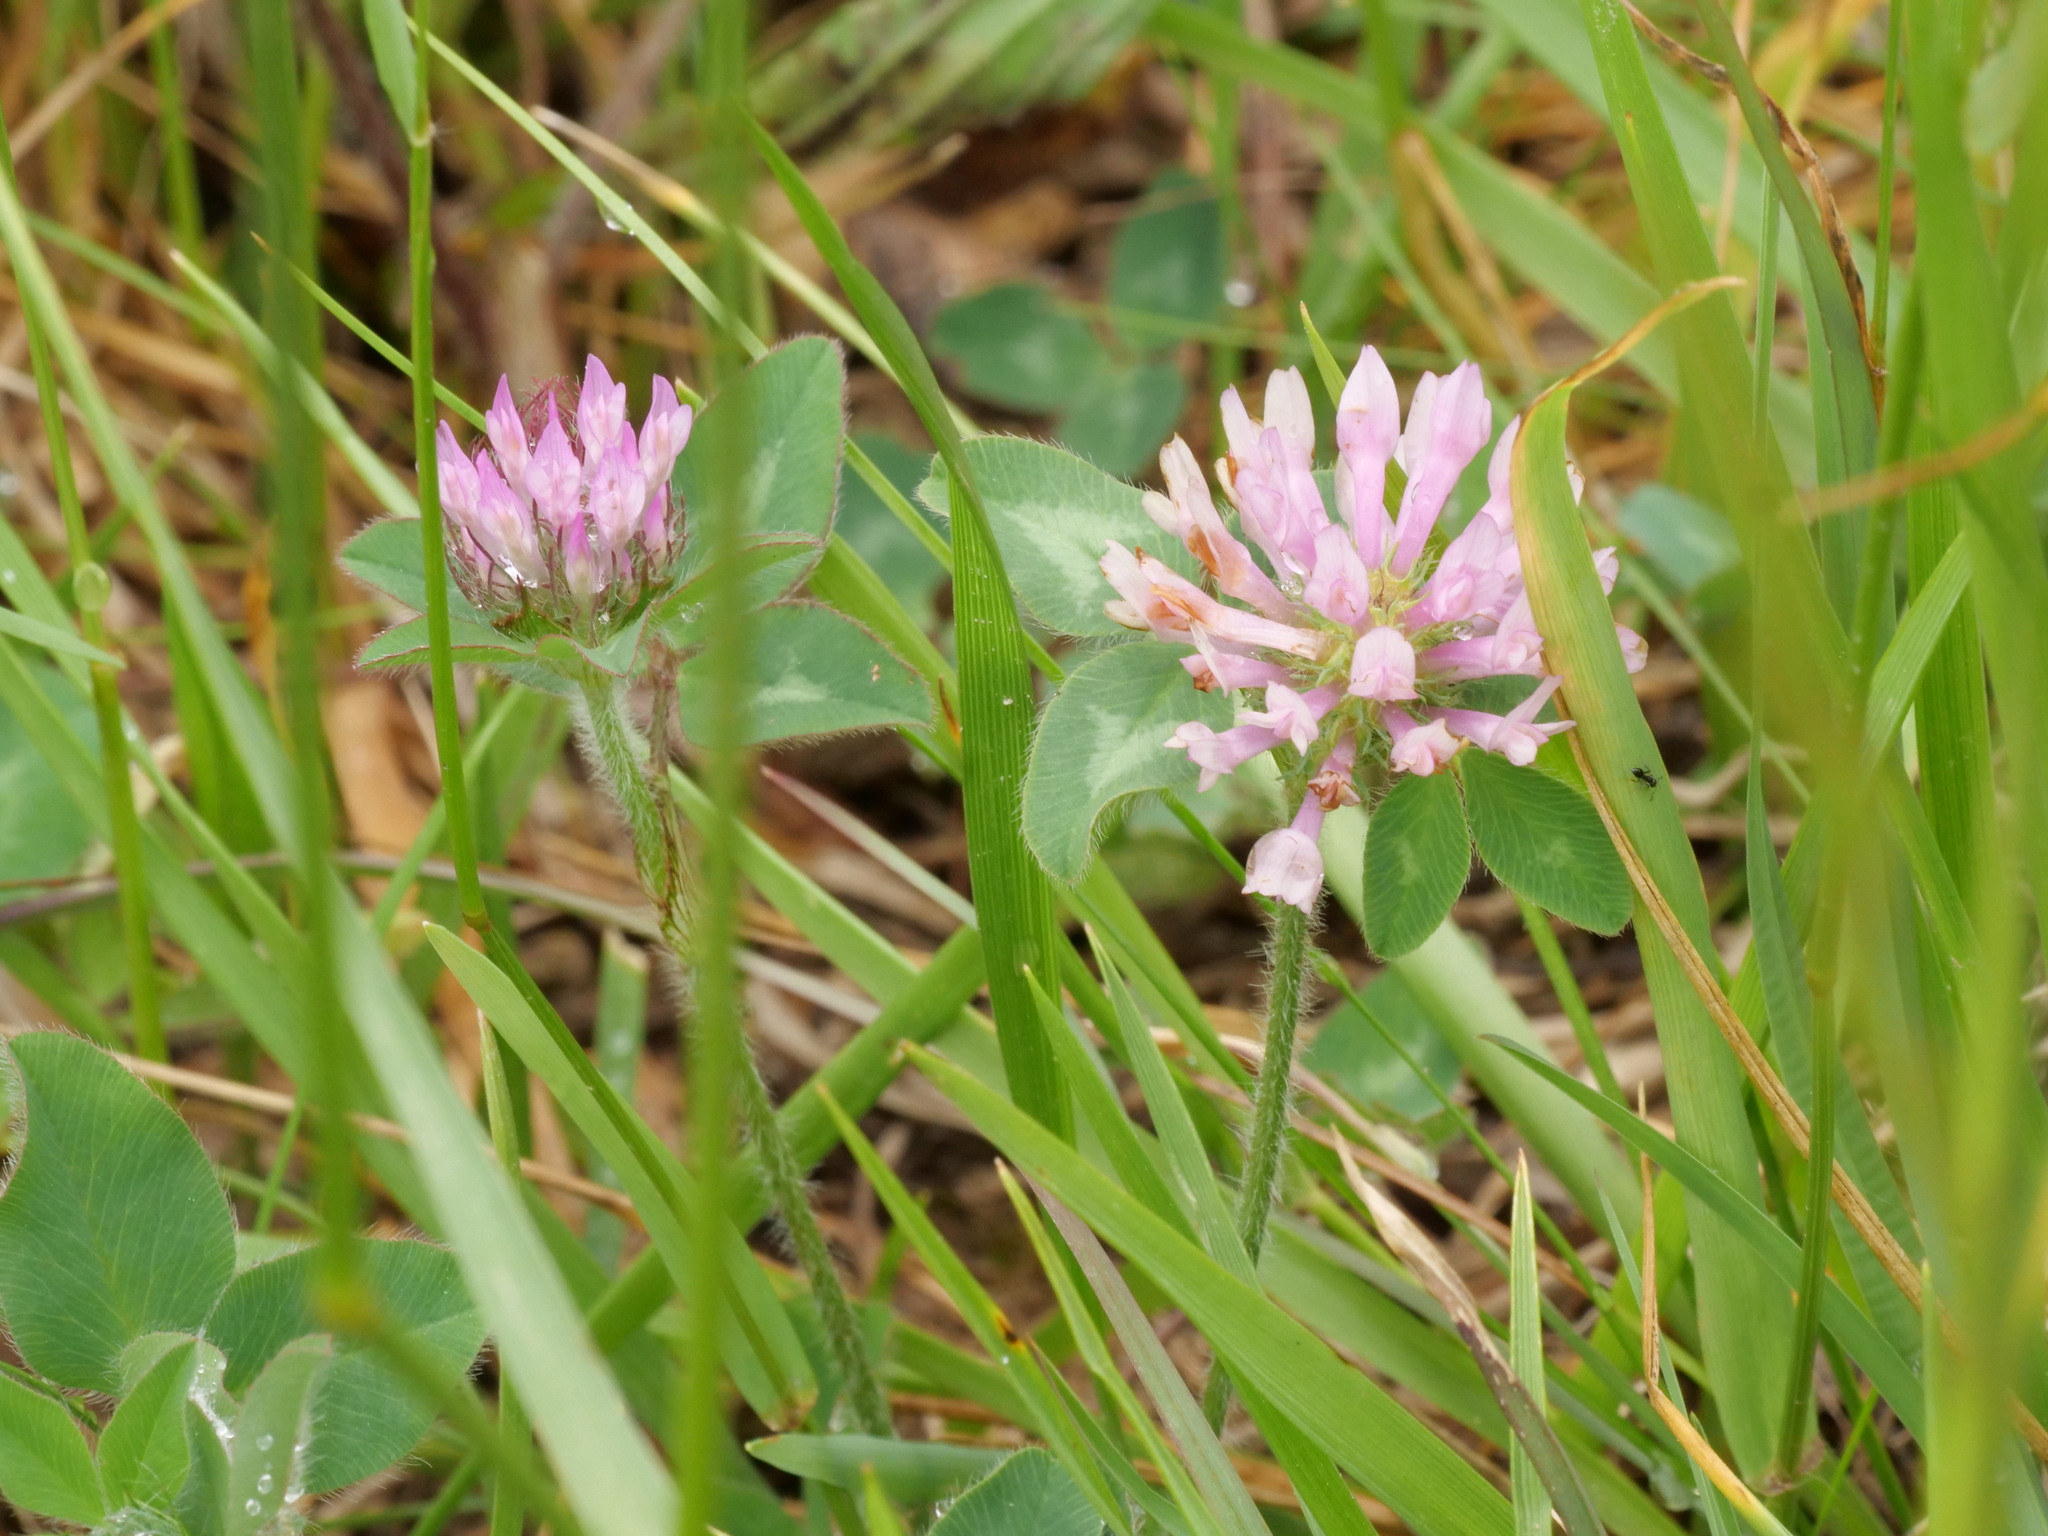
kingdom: Plantae
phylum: Tracheophyta
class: Magnoliopsida
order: Fabales
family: Fabaceae
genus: Trifolium
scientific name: Trifolium pratense
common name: Red clover
